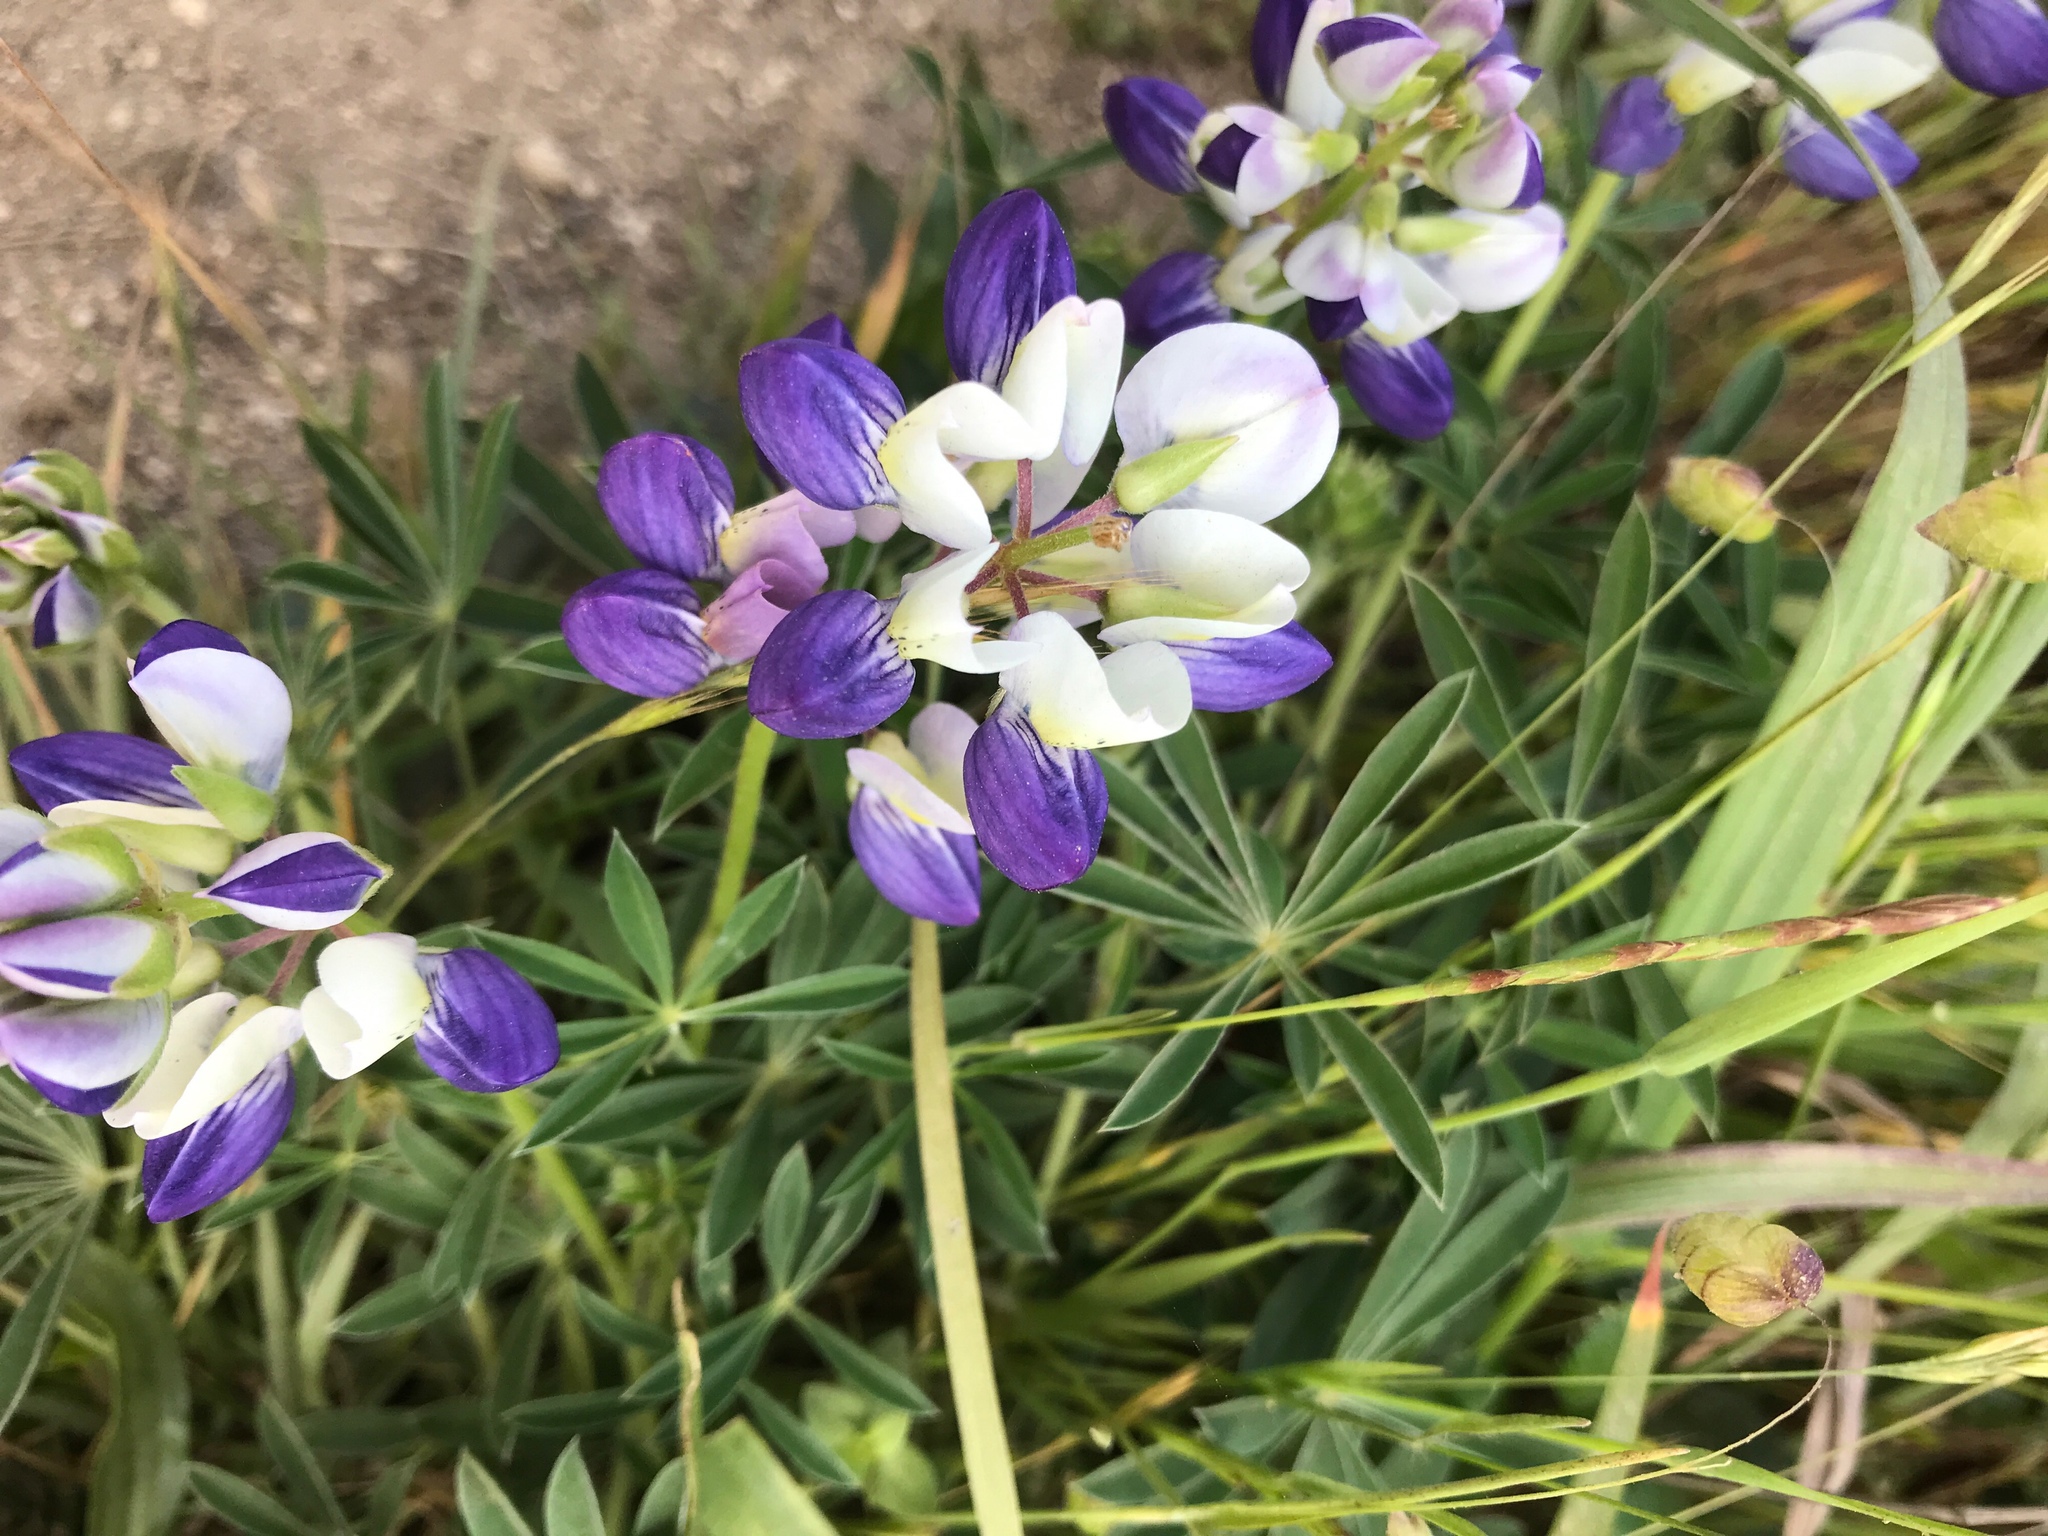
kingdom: Plantae
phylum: Tracheophyta
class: Magnoliopsida
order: Fabales
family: Fabaceae
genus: Lupinus
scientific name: Lupinus variicolor
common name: Lindley's varied lupine
